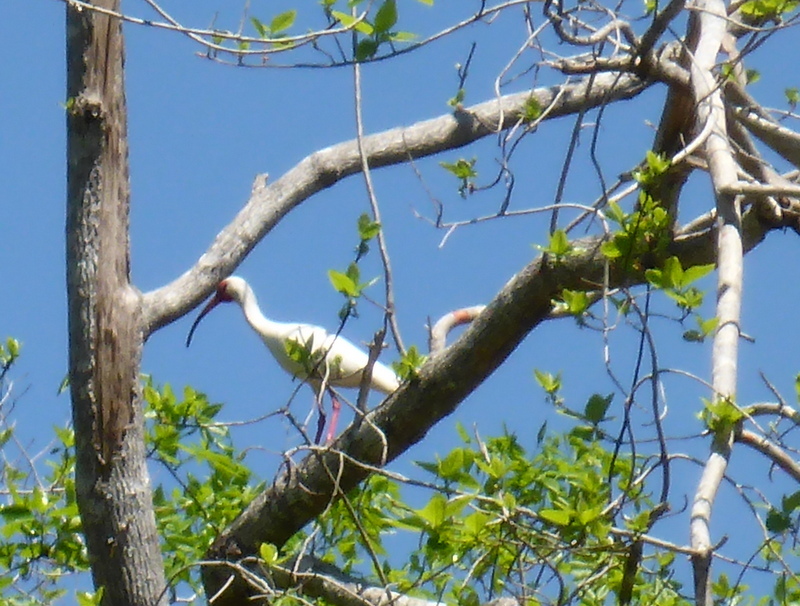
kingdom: Animalia
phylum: Chordata
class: Aves
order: Pelecaniformes
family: Threskiornithidae
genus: Eudocimus
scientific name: Eudocimus albus
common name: White ibis
